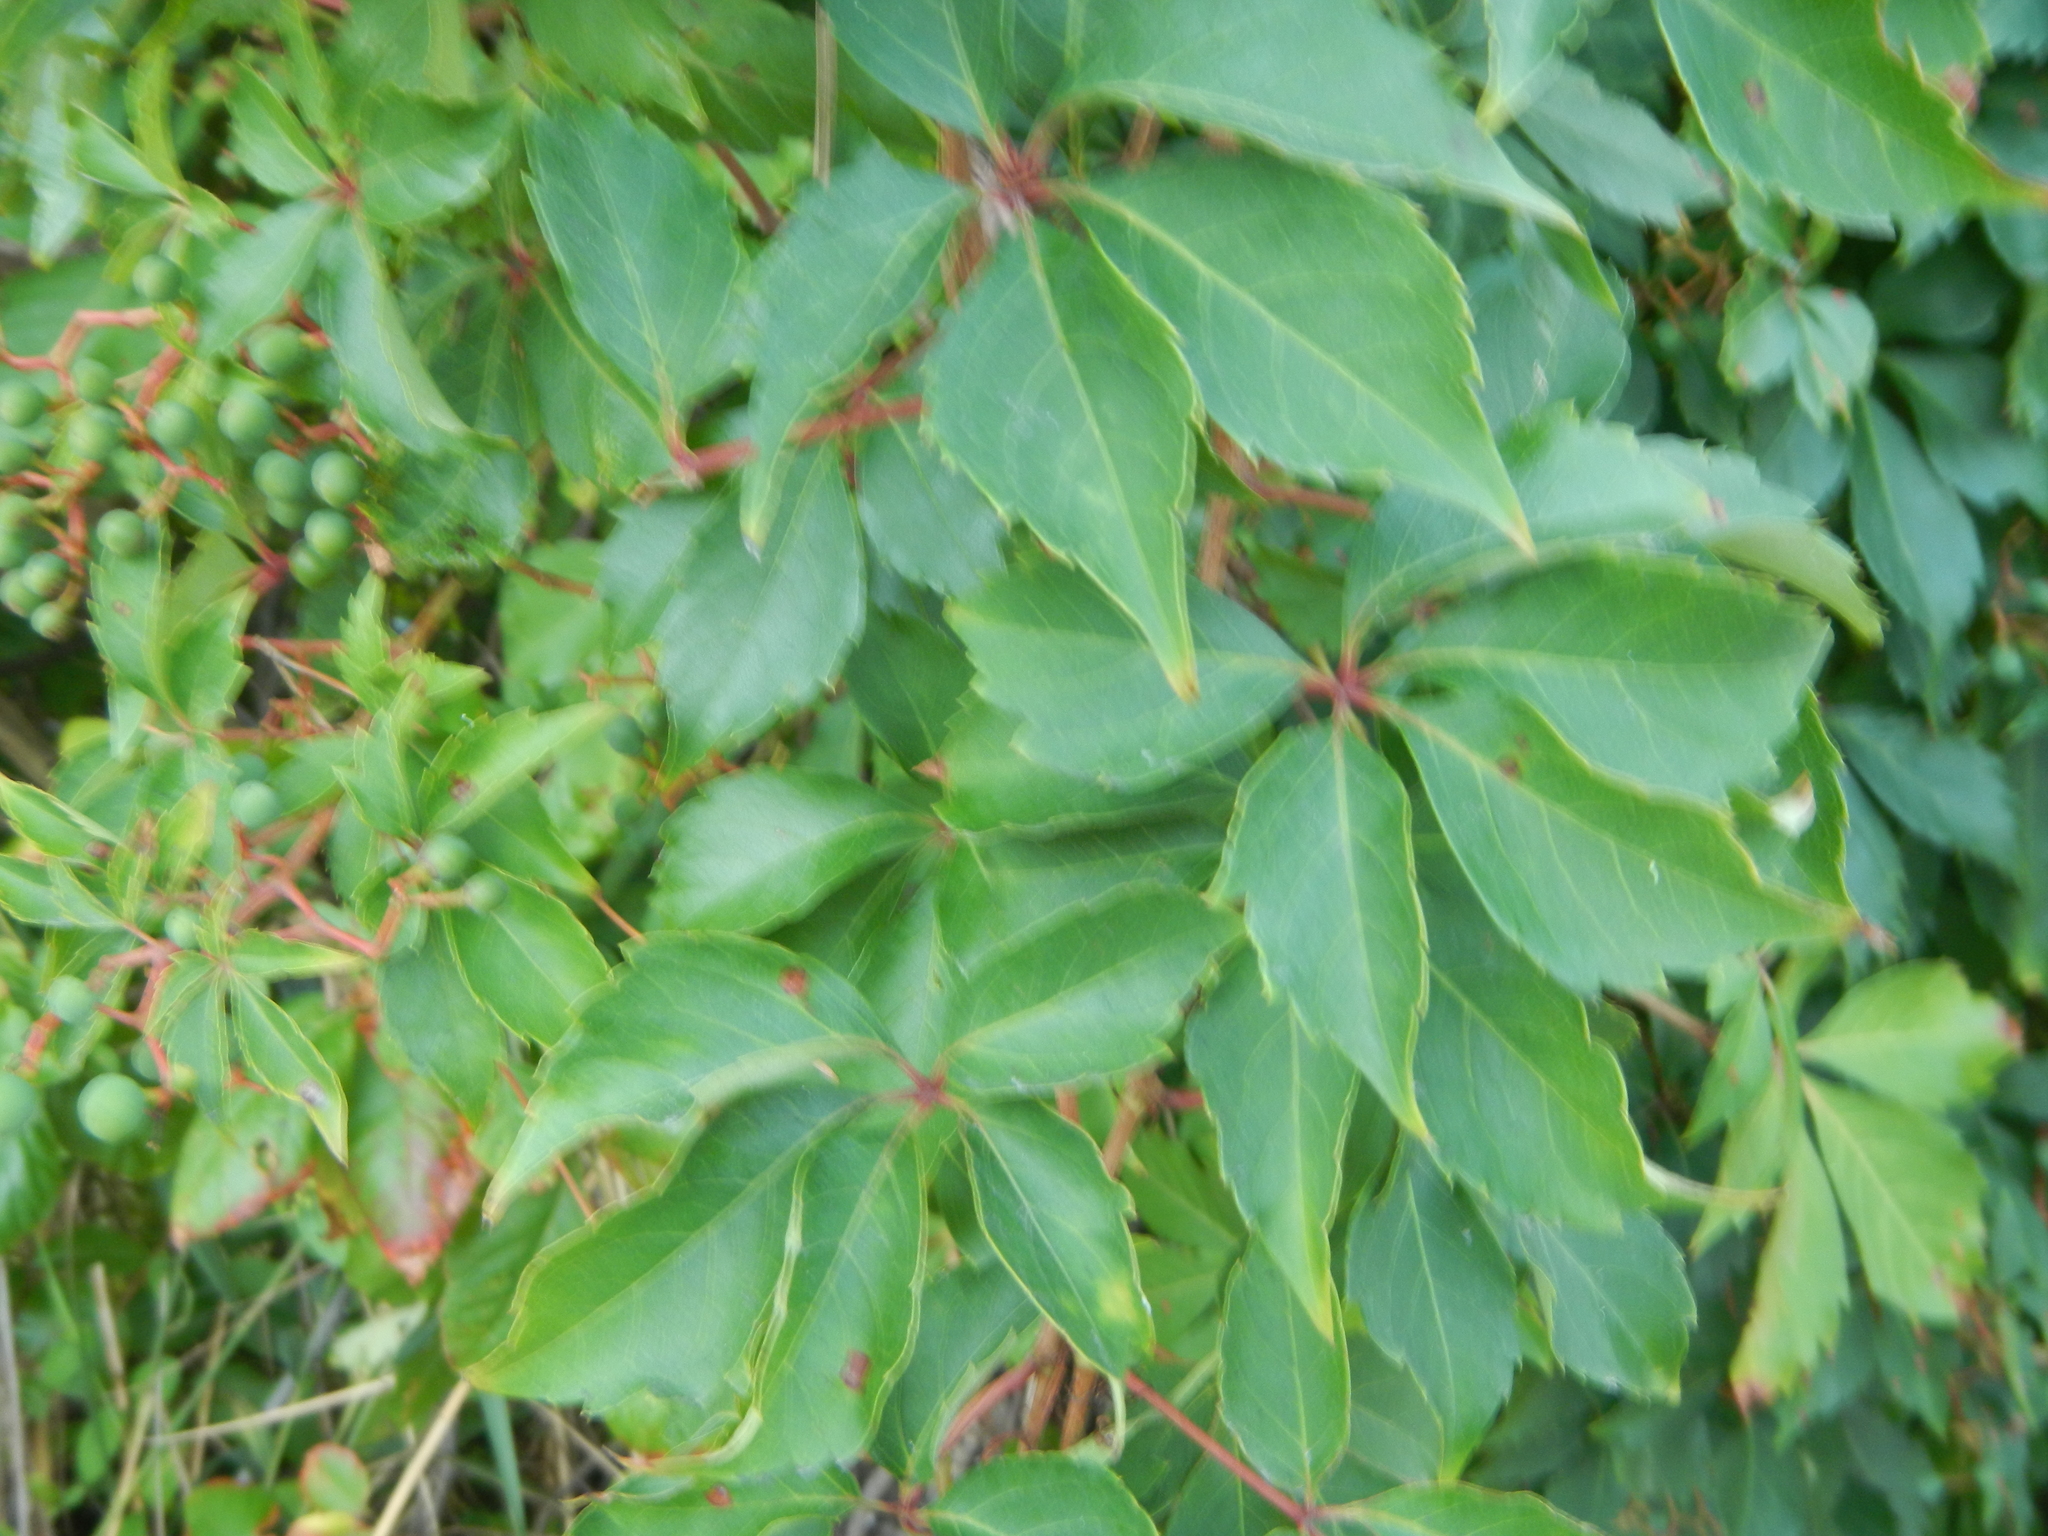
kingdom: Plantae
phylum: Tracheophyta
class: Magnoliopsida
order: Vitales
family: Vitaceae
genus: Parthenocissus
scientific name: Parthenocissus quinquefolia
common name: Virginia-creeper
